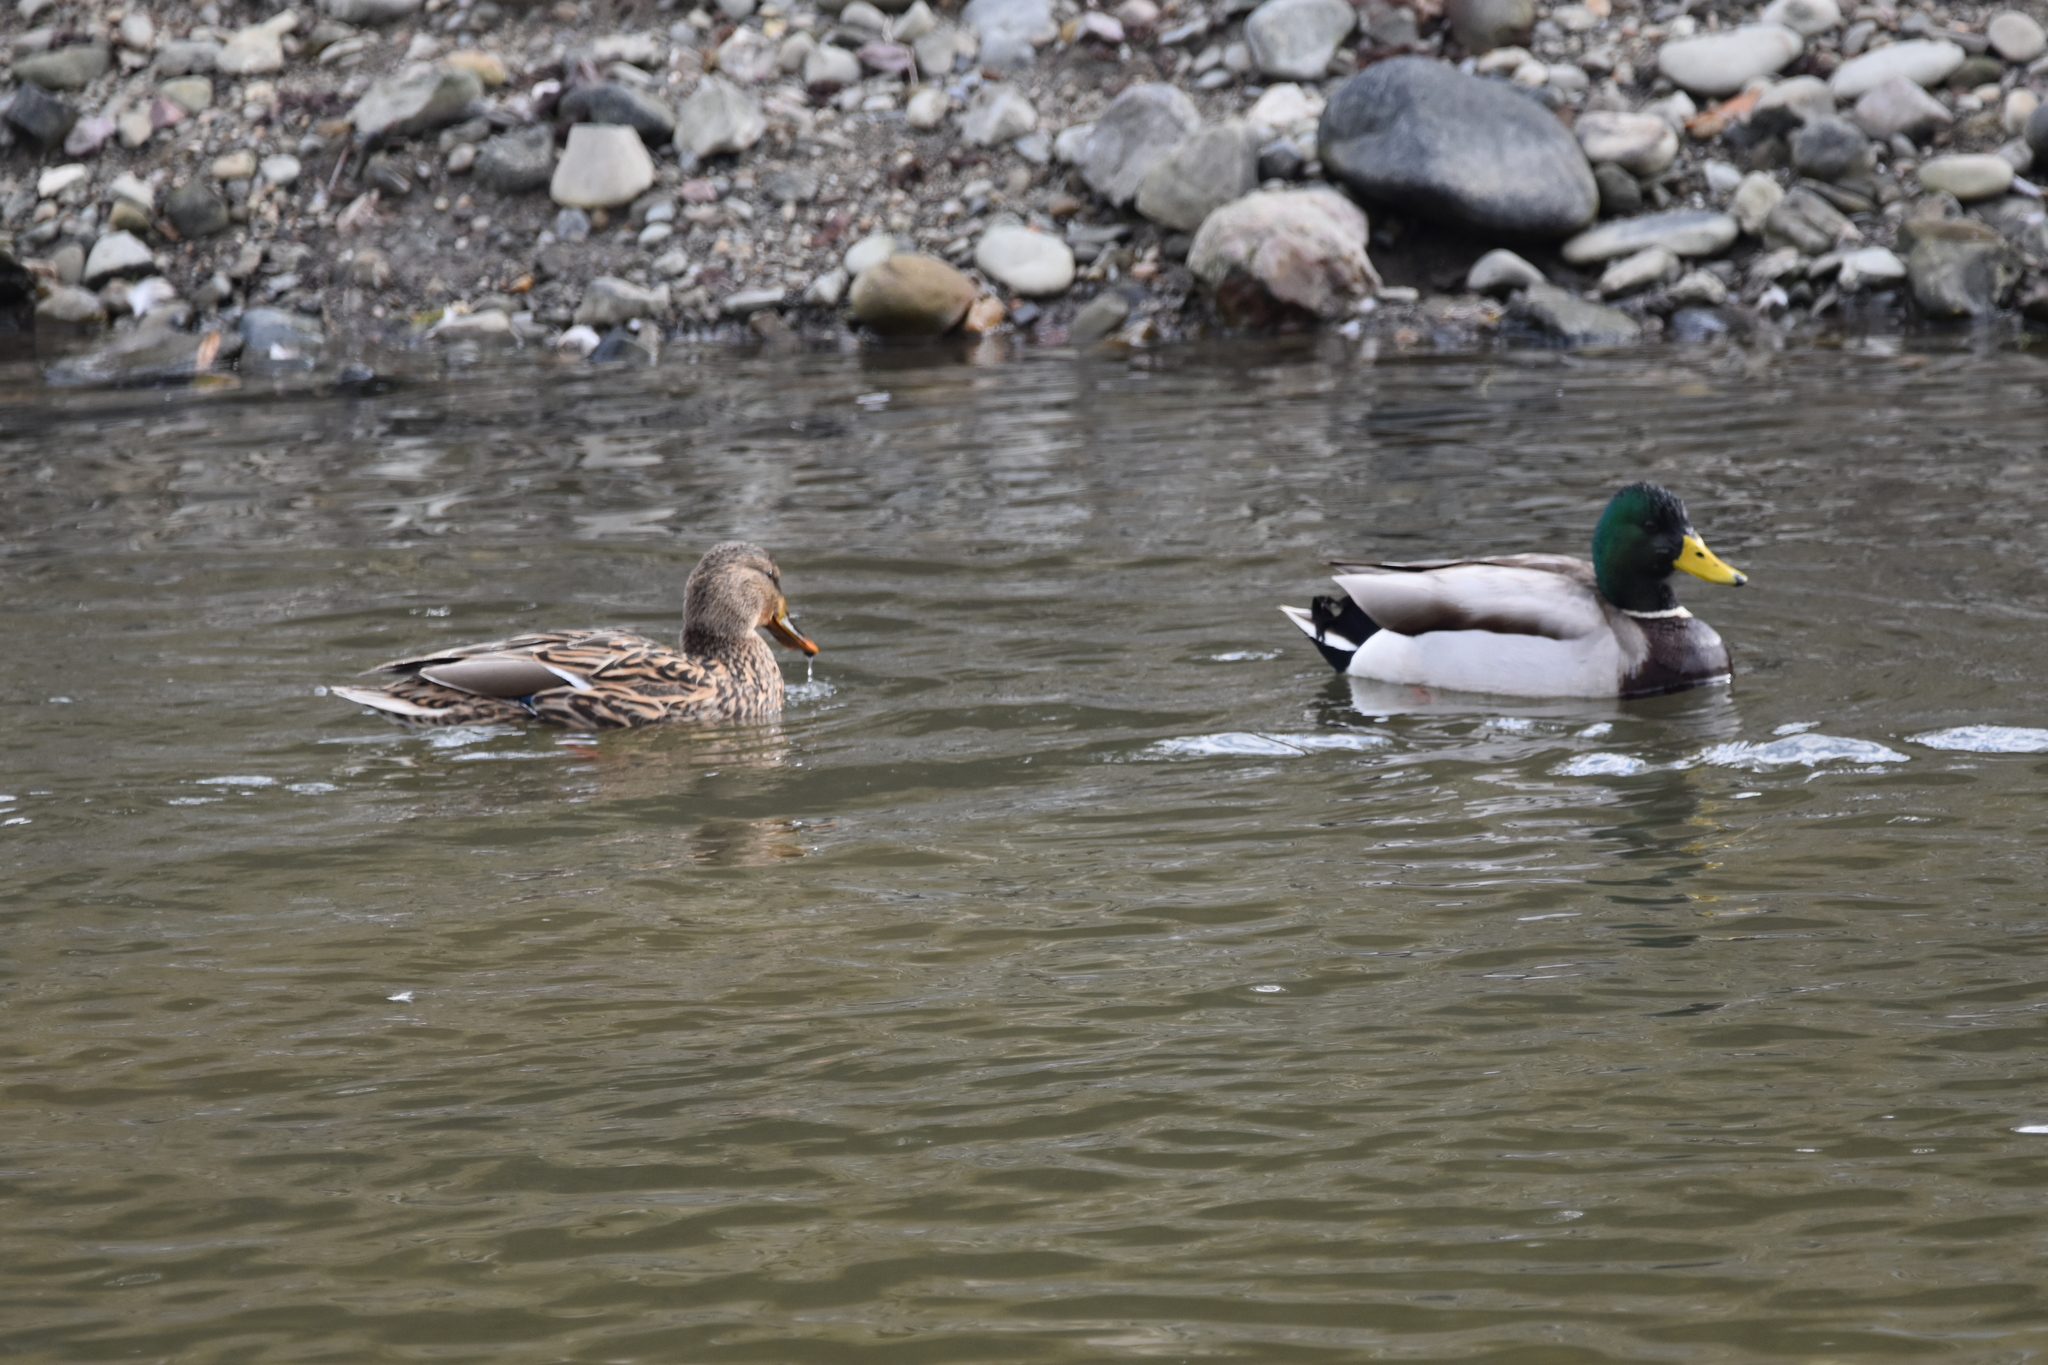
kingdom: Animalia
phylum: Chordata
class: Aves
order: Anseriformes
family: Anatidae
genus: Anas
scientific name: Anas platyrhynchos
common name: Mallard
